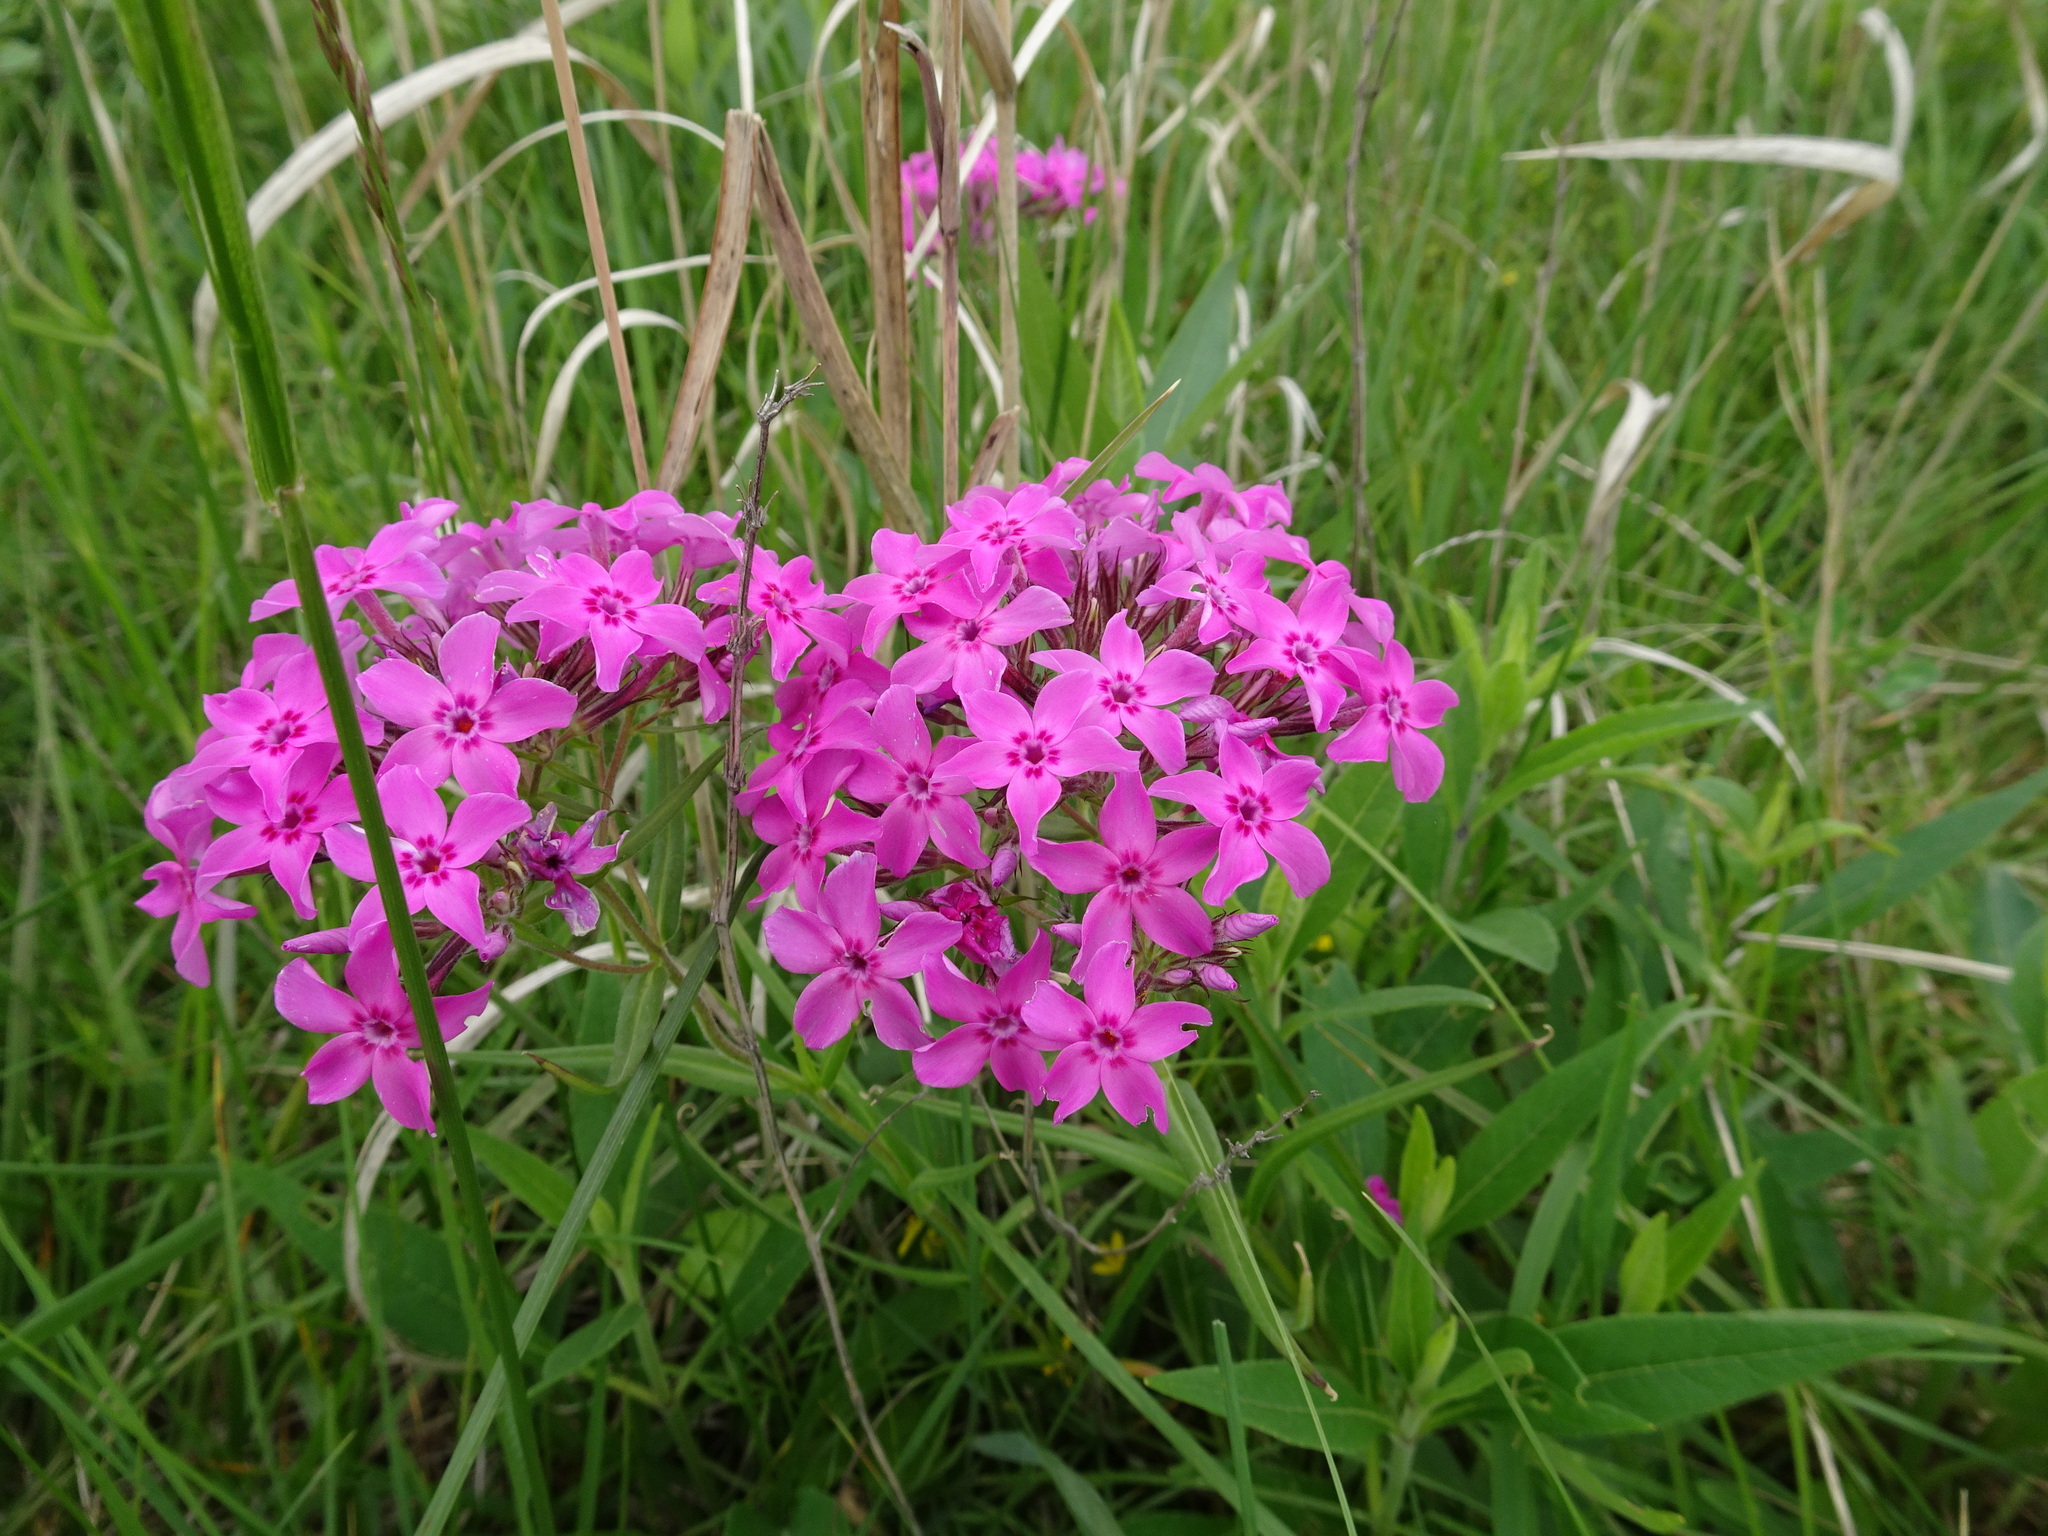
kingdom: Plantae
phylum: Tracheophyta
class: Magnoliopsida
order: Ericales
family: Polemoniaceae
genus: Phlox
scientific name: Phlox pilosa
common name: Prairie phlox
